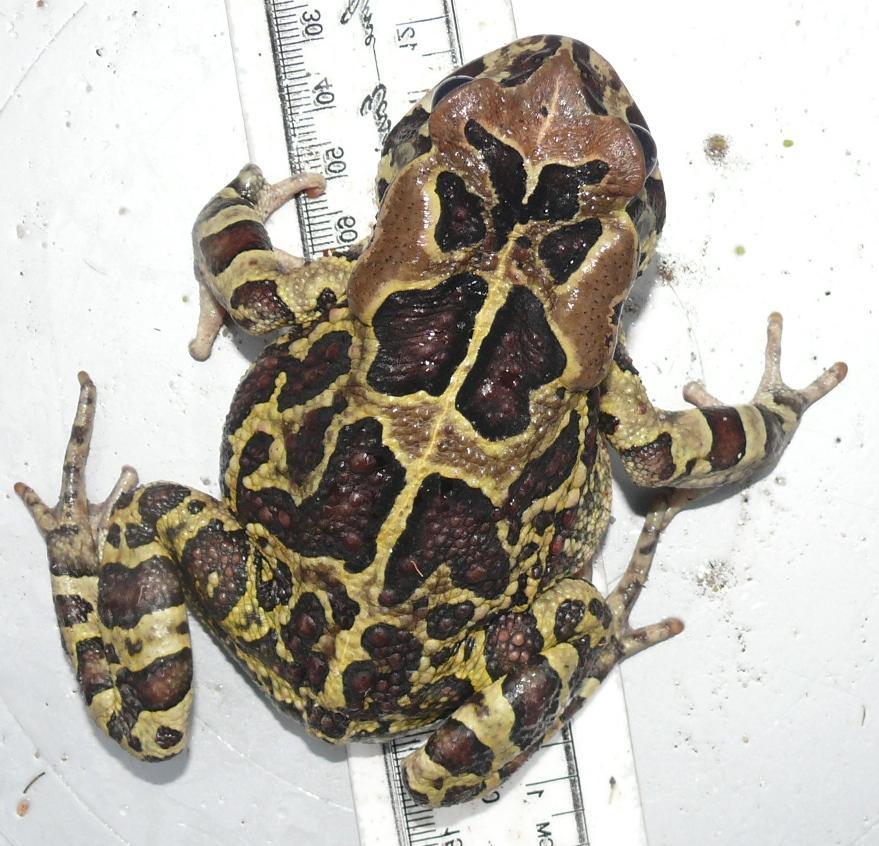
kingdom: Animalia
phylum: Chordata
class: Amphibia
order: Anura
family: Bufonidae
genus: Sclerophrys
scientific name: Sclerophrys pantherina
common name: Panther toad
